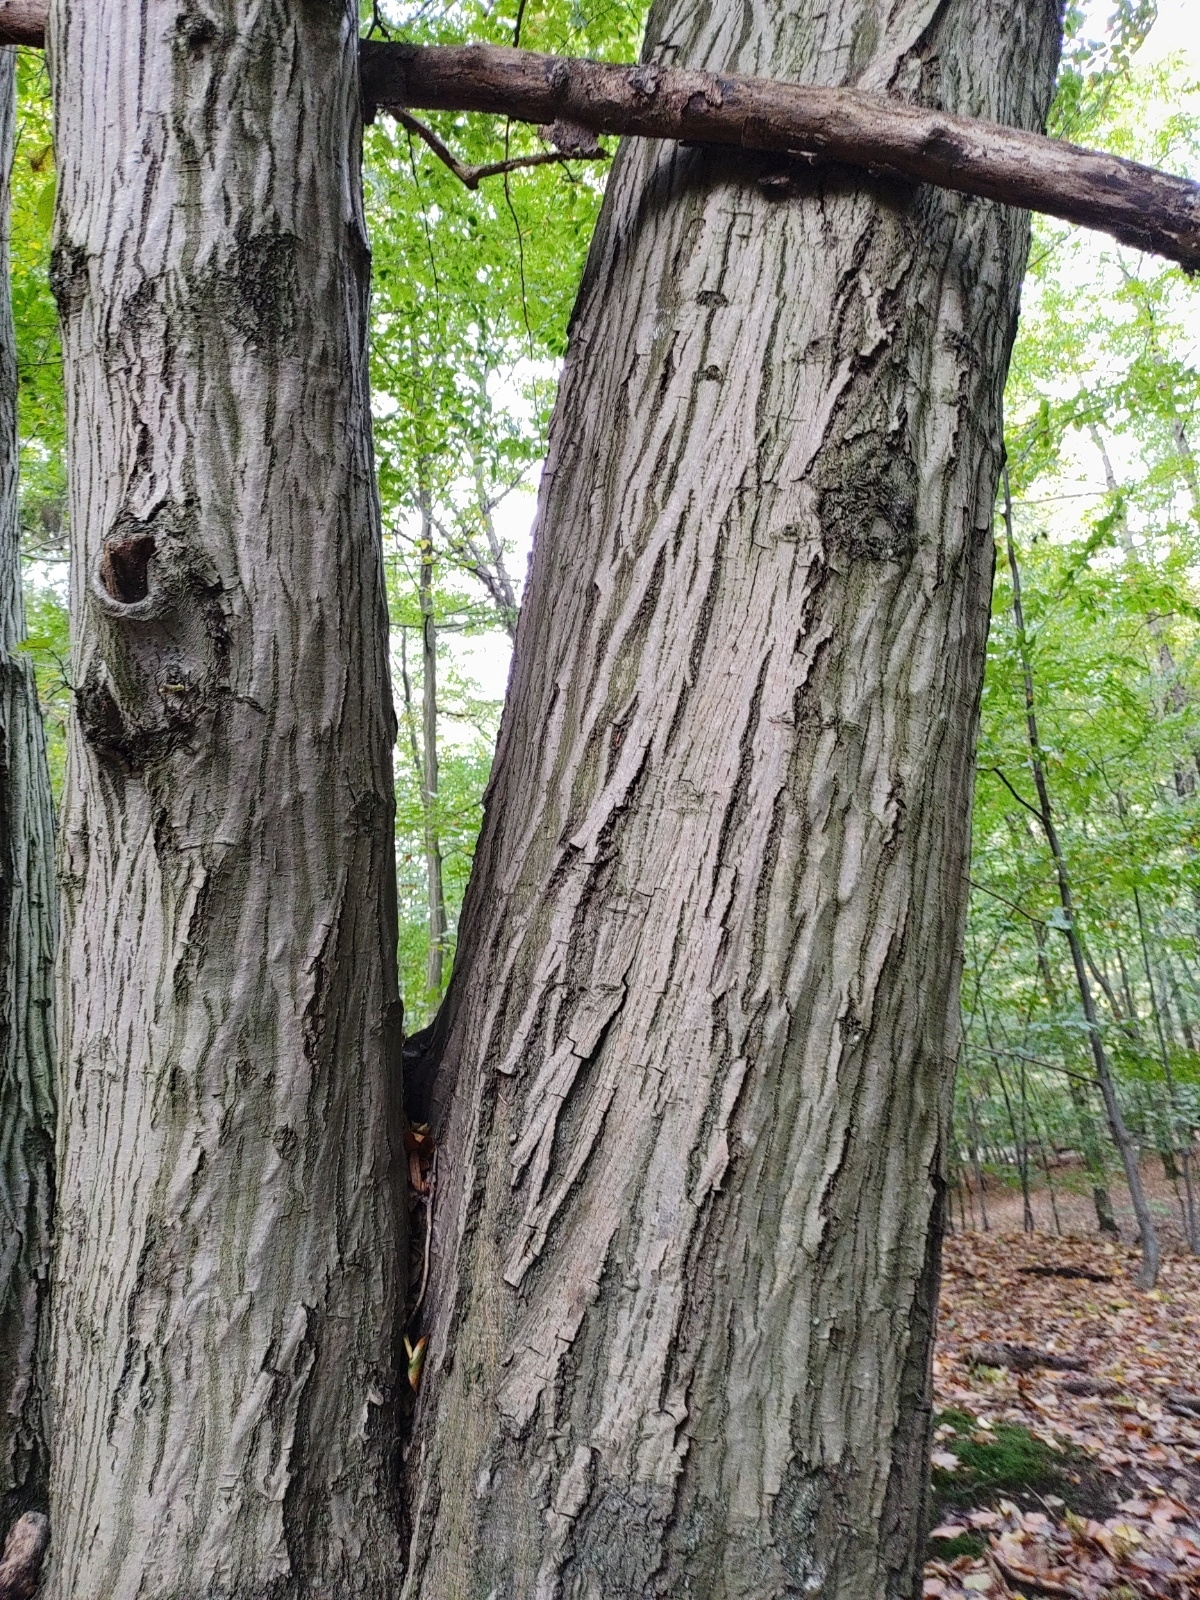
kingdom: Plantae
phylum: Tracheophyta
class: Magnoliopsida
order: Fagales
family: Betulaceae
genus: Carpinus
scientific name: Carpinus betulus
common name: Hornbeam
